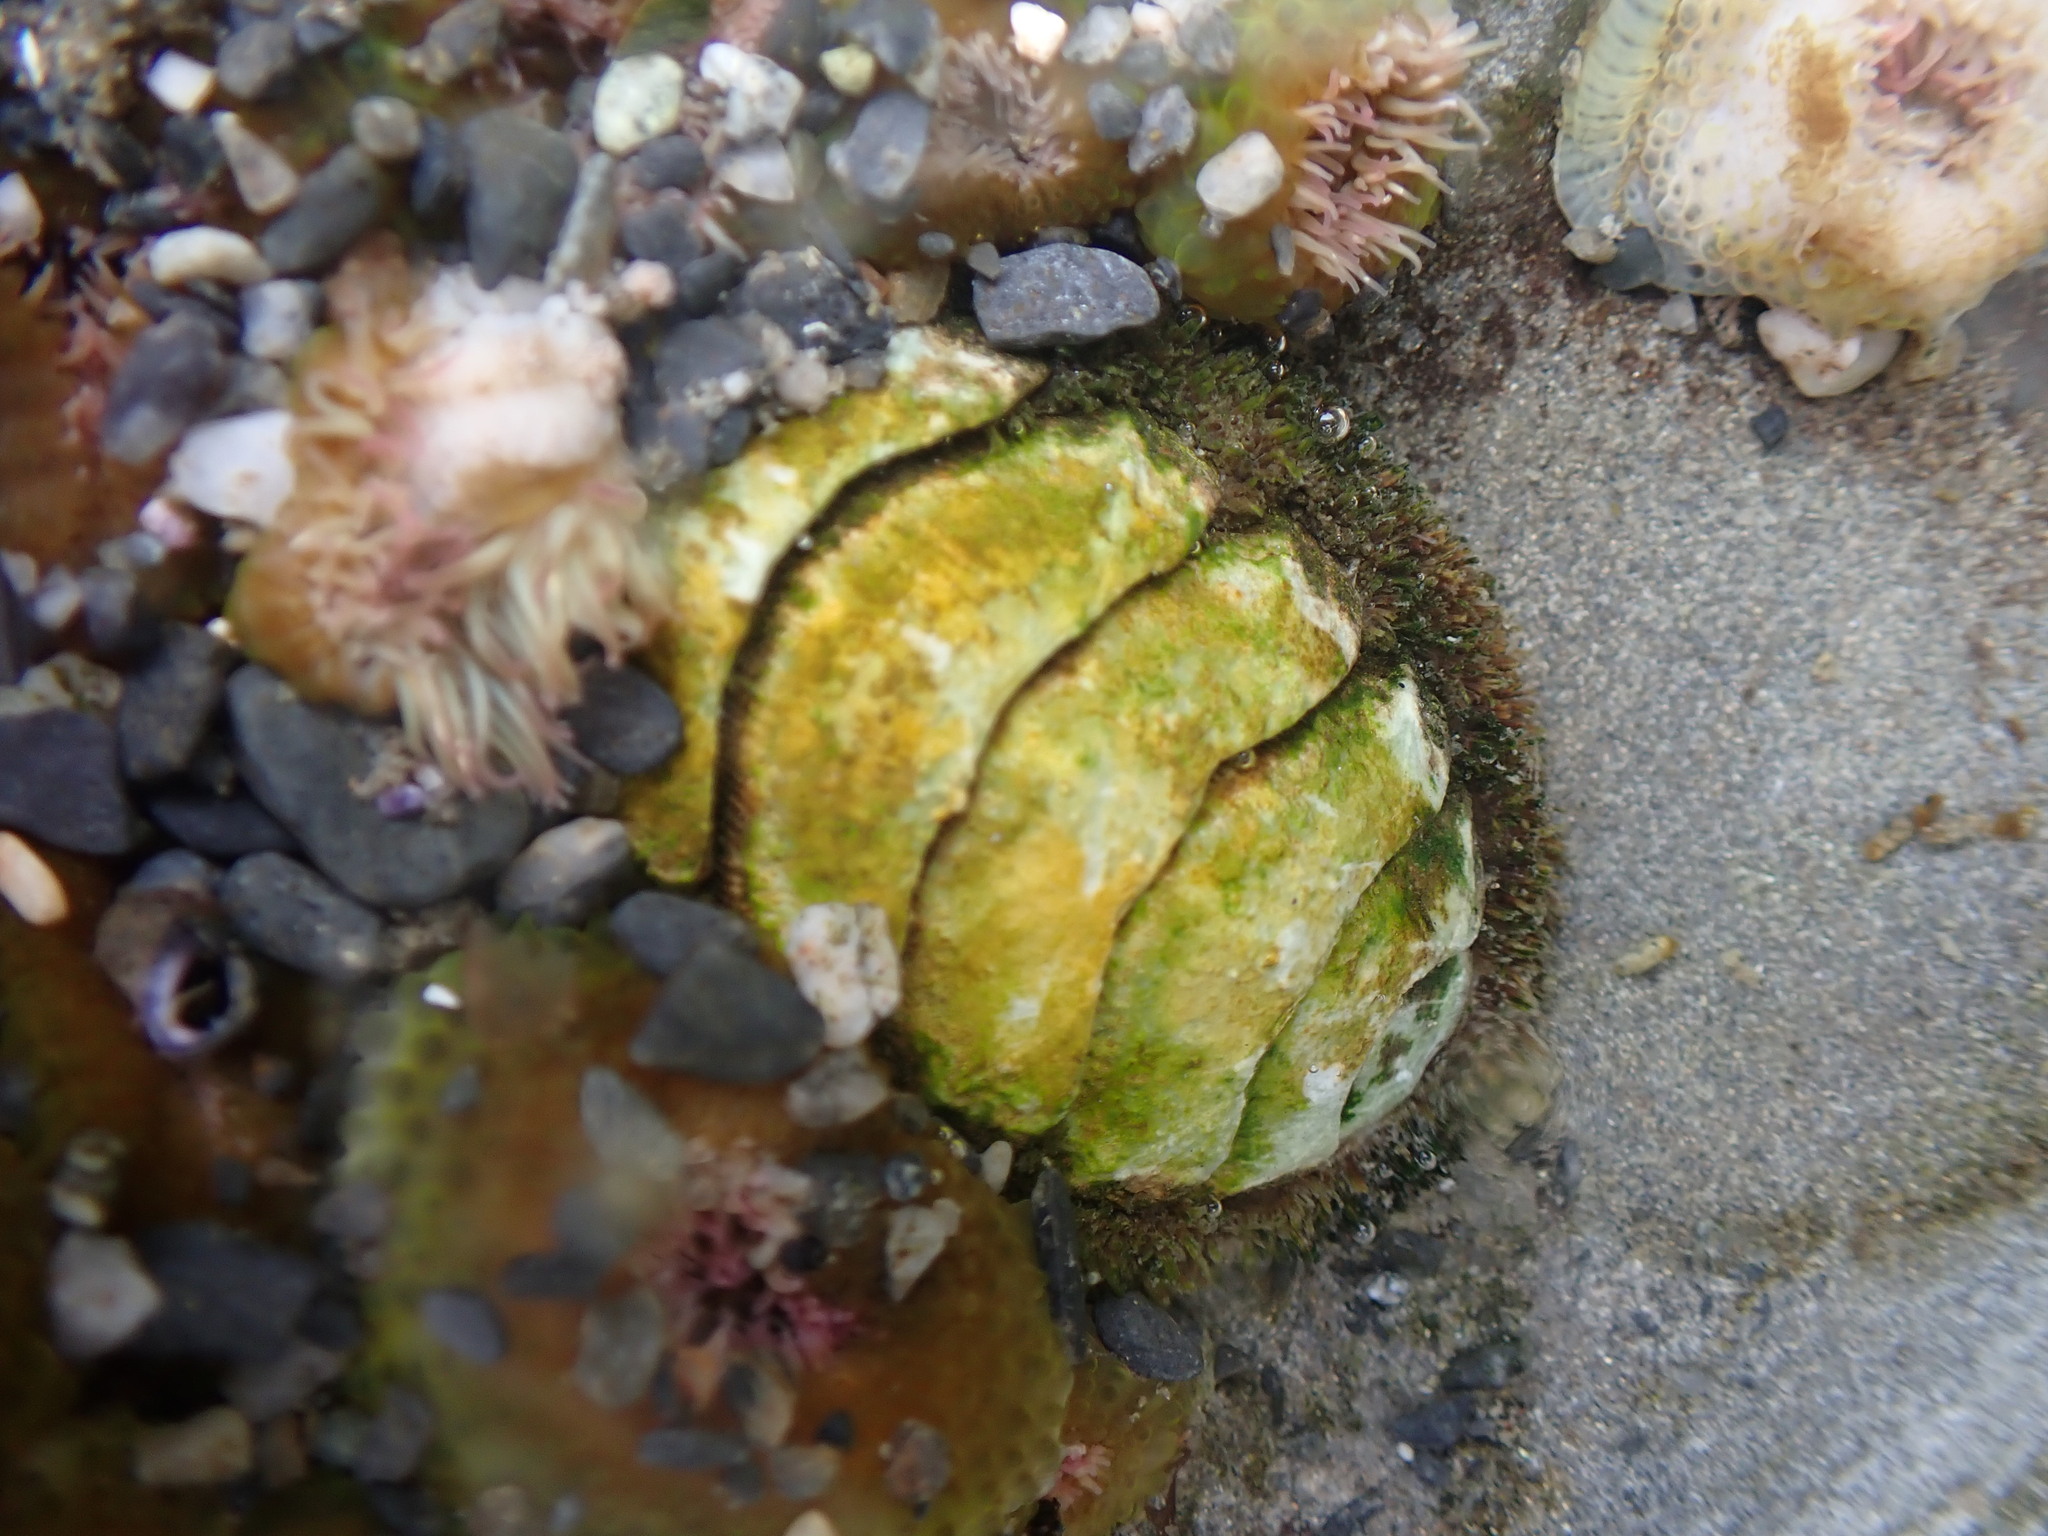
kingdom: Animalia
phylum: Mollusca
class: Polyplacophora
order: Chitonida
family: Mopaliidae
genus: Mopalia
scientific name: Mopalia muscosa
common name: Mossy chiton
